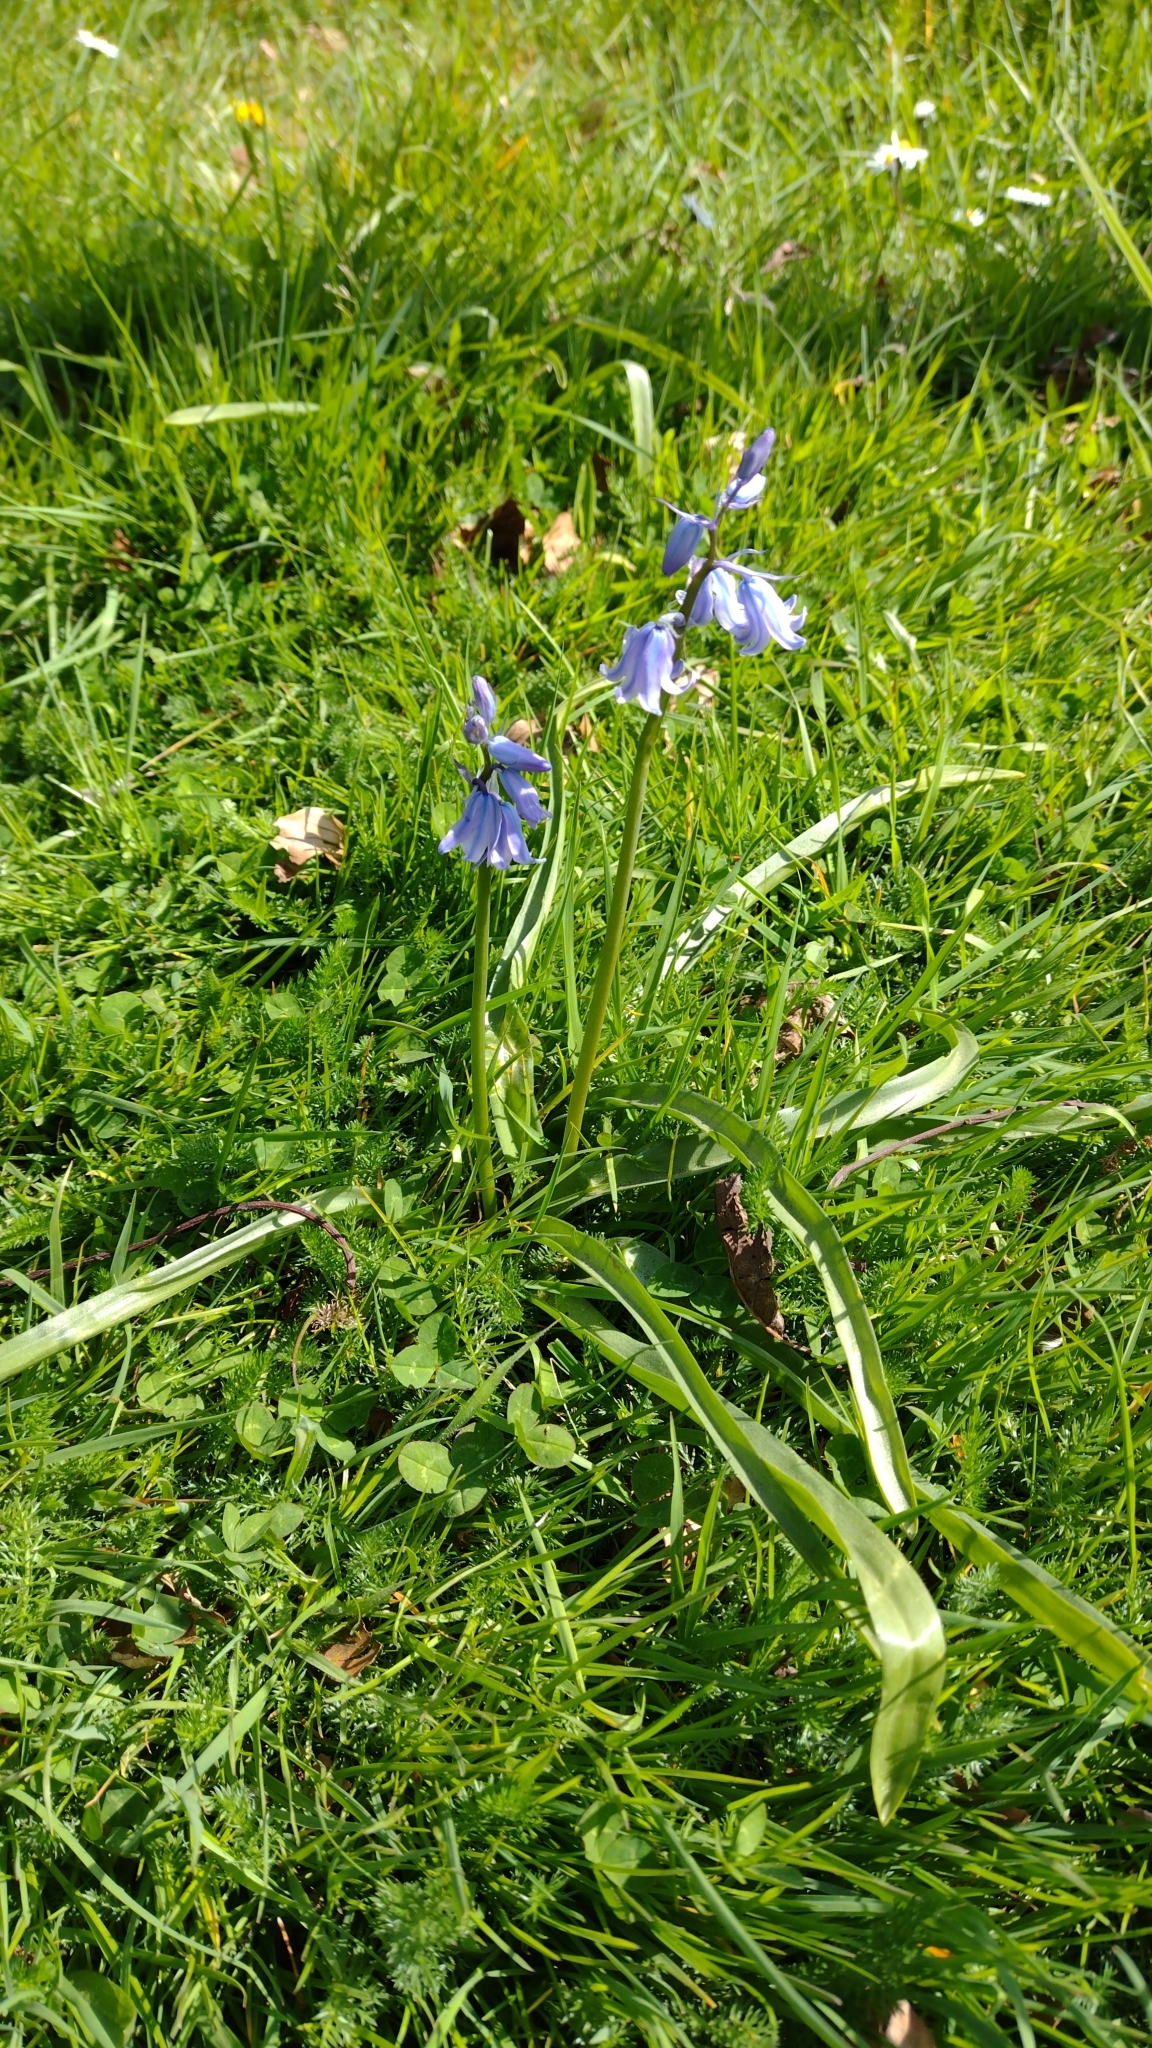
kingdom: Plantae
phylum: Tracheophyta
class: Liliopsida
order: Asparagales
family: Asparagaceae
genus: Hyacinthoides
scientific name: Hyacinthoides massartiana
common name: Hyacinthoides
